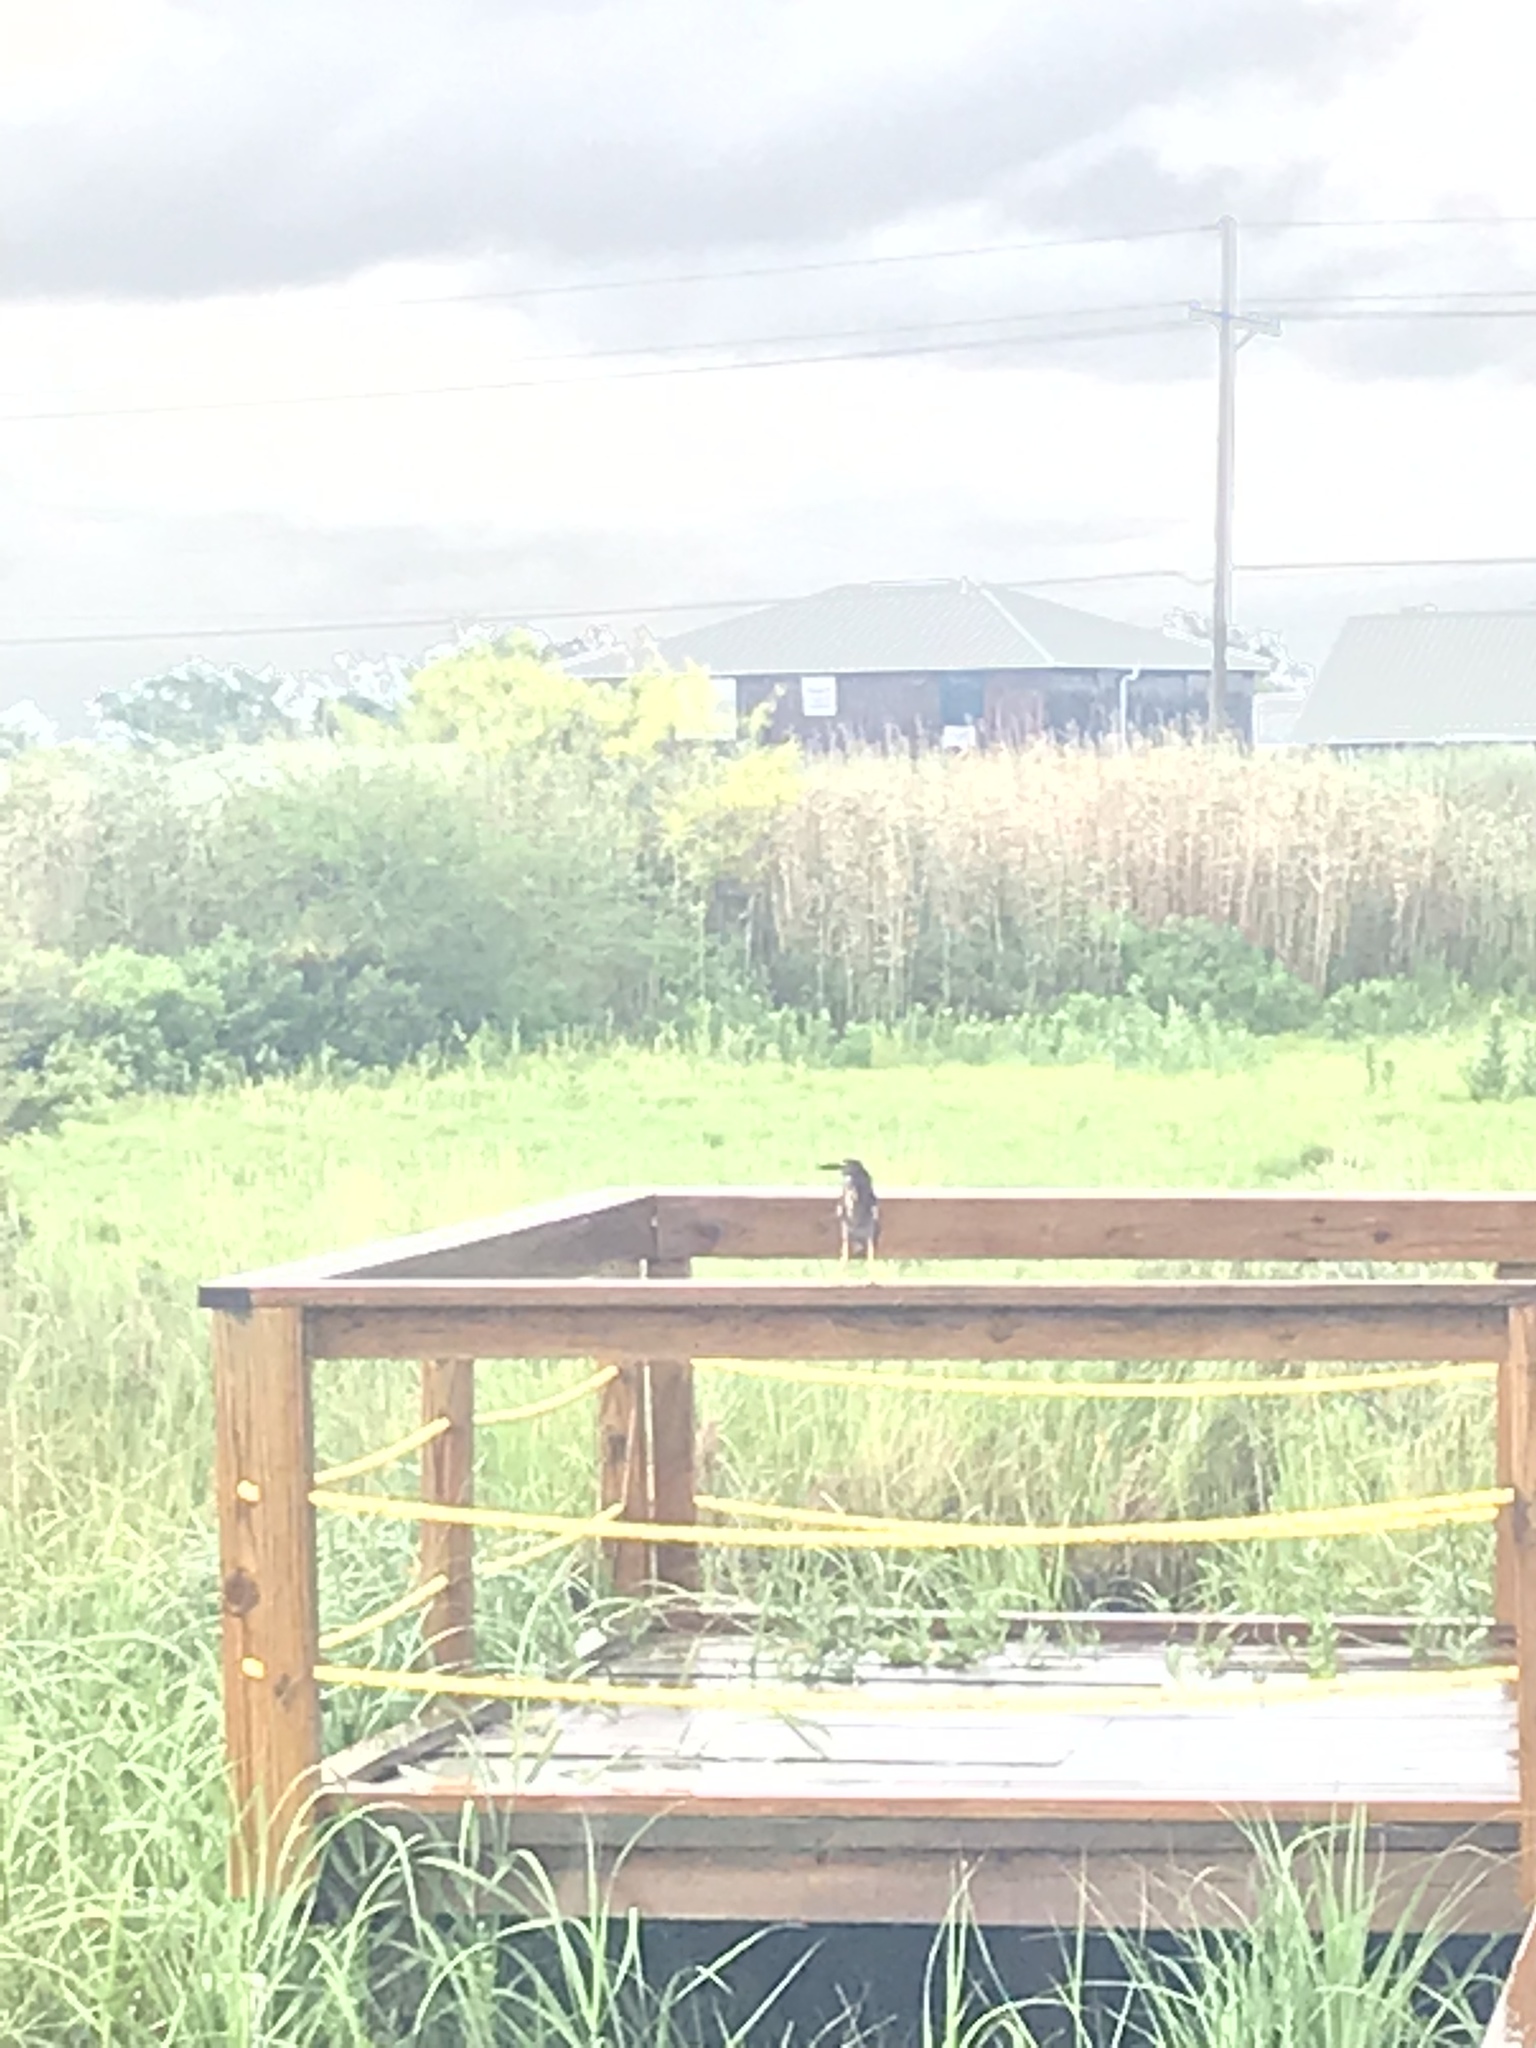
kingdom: Animalia
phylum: Chordata
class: Aves
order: Pelecaniformes
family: Ardeidae
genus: Butorides
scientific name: Butorides virescens
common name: Green heron
